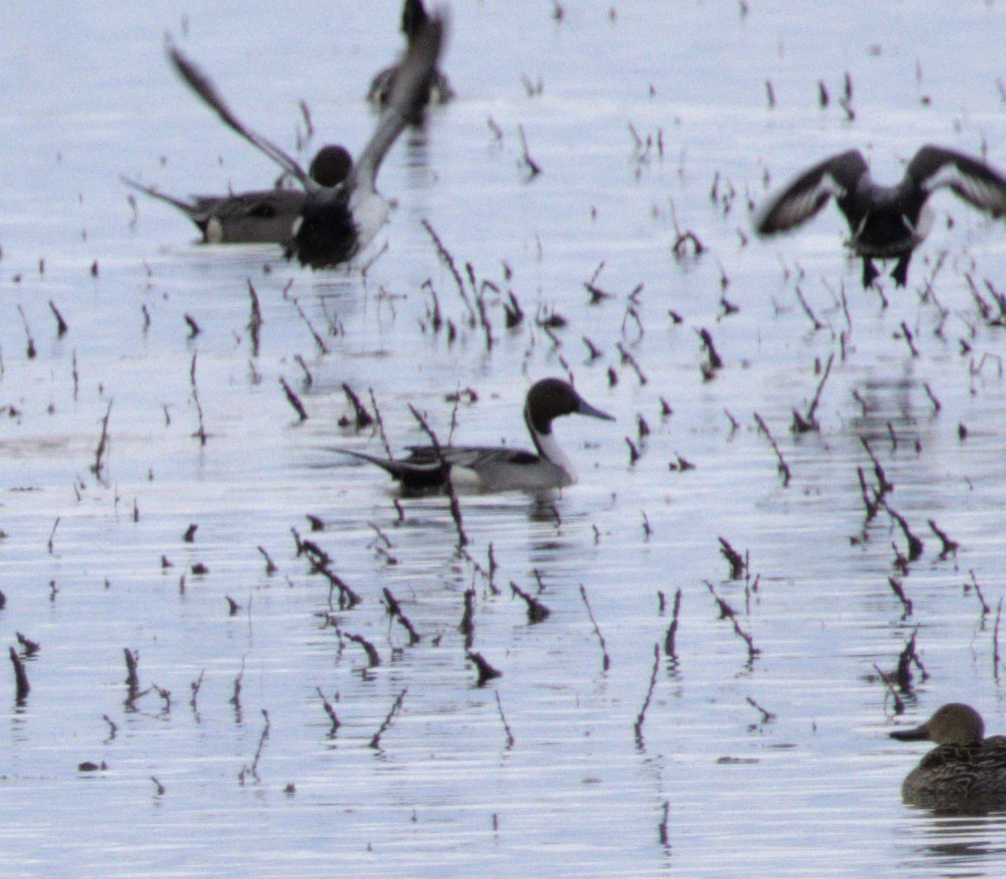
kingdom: Animalia
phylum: Chordata
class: Aves
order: Anseriformes
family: Anatidae
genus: Anas
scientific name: Anas acuta
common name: Northern pintail
